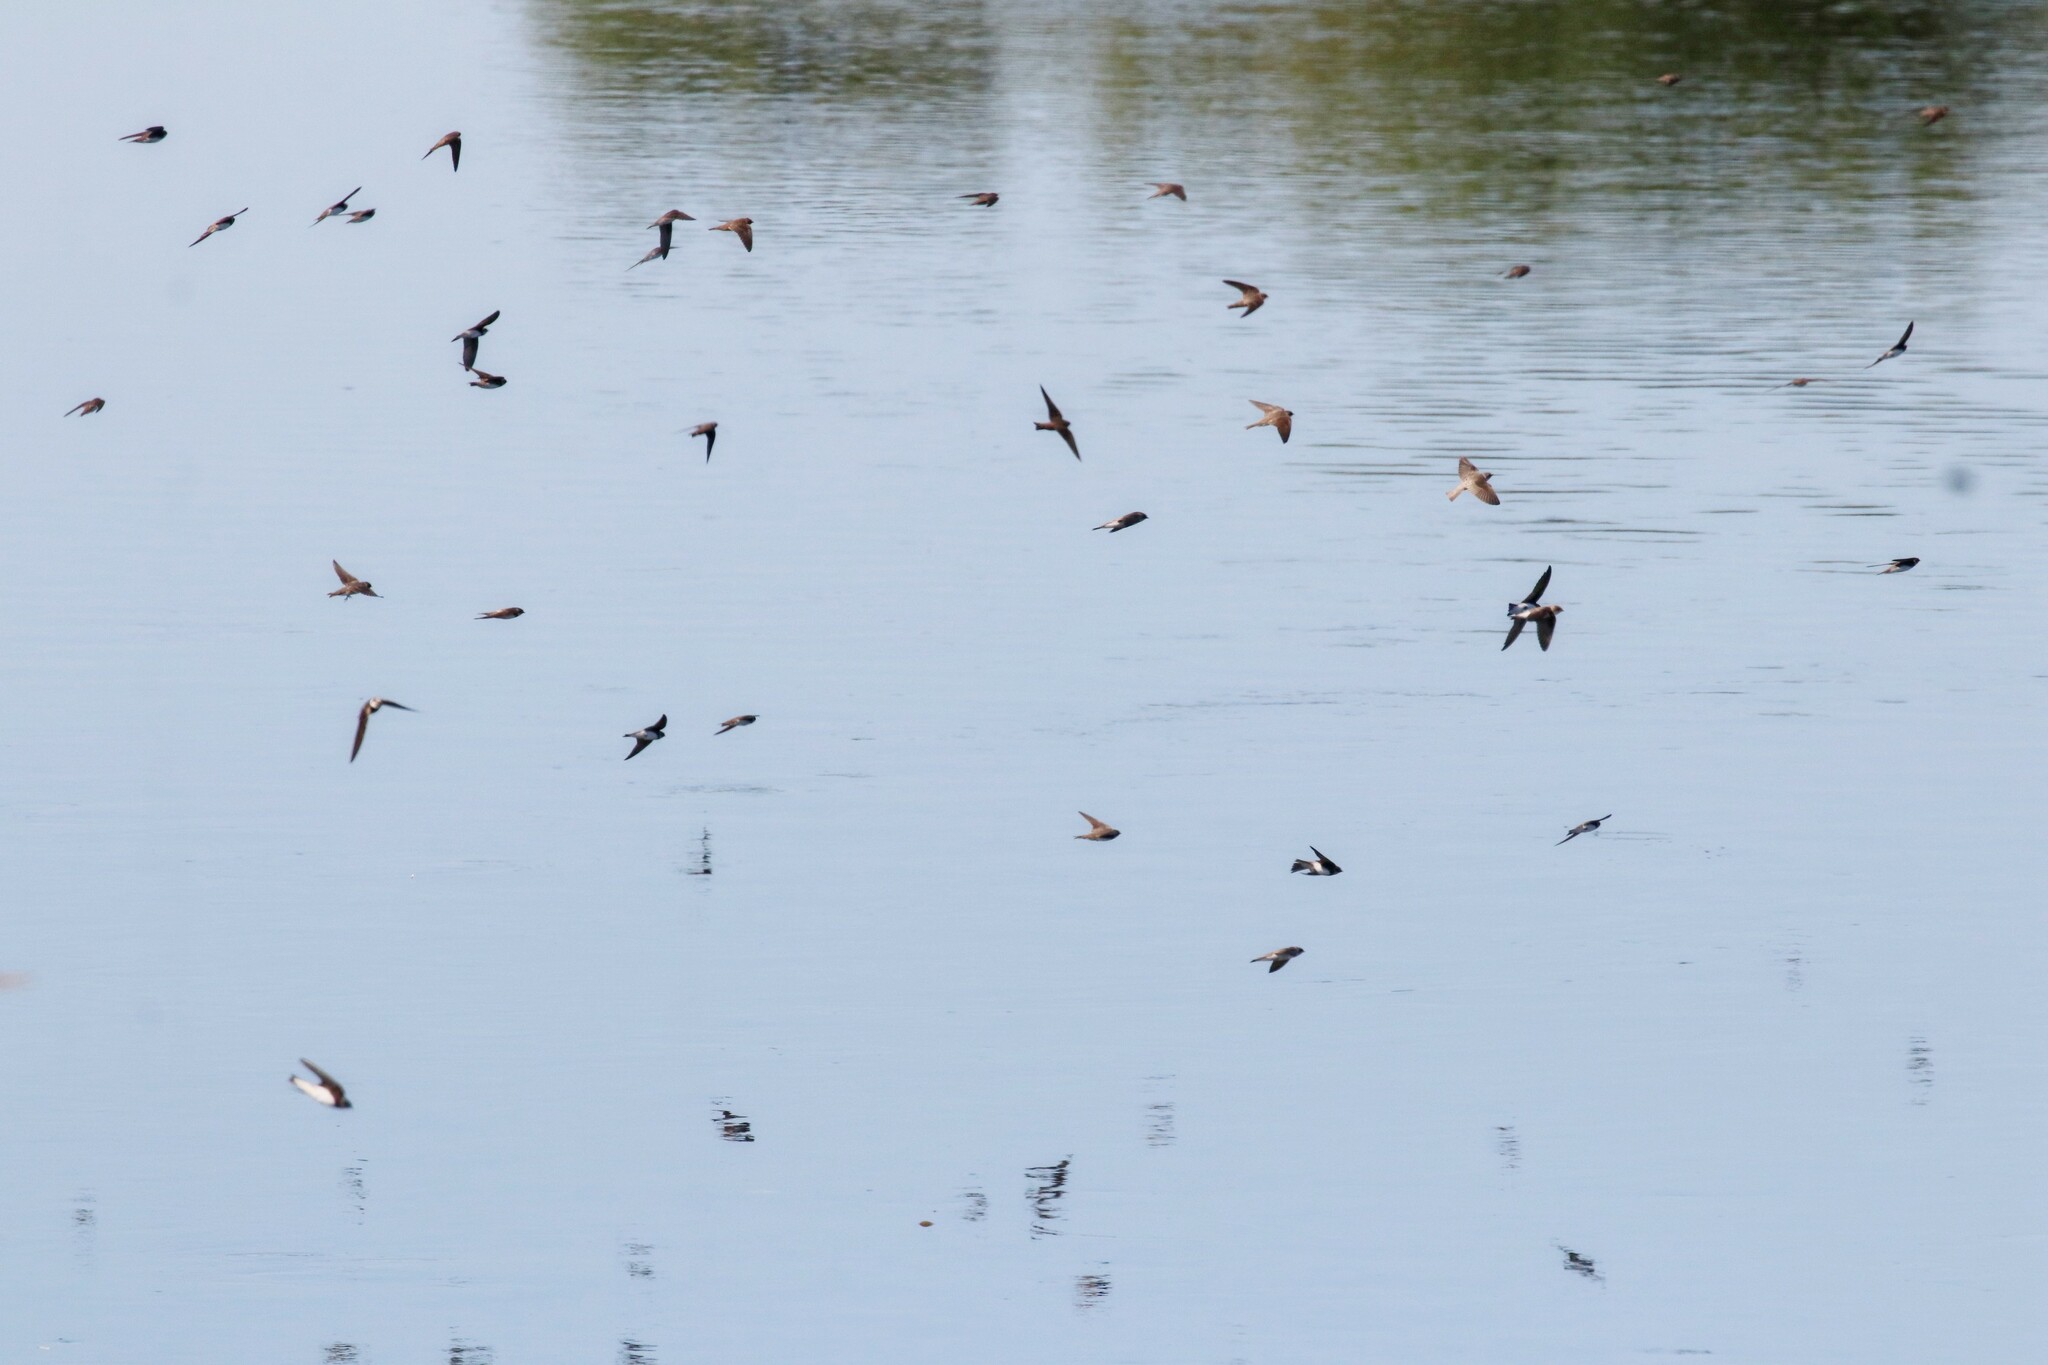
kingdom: Animalia
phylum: Chordata
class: Aves
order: Passeriformes
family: Hirundinidae
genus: Riparia
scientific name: Riparia riparia
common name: Sand martin
